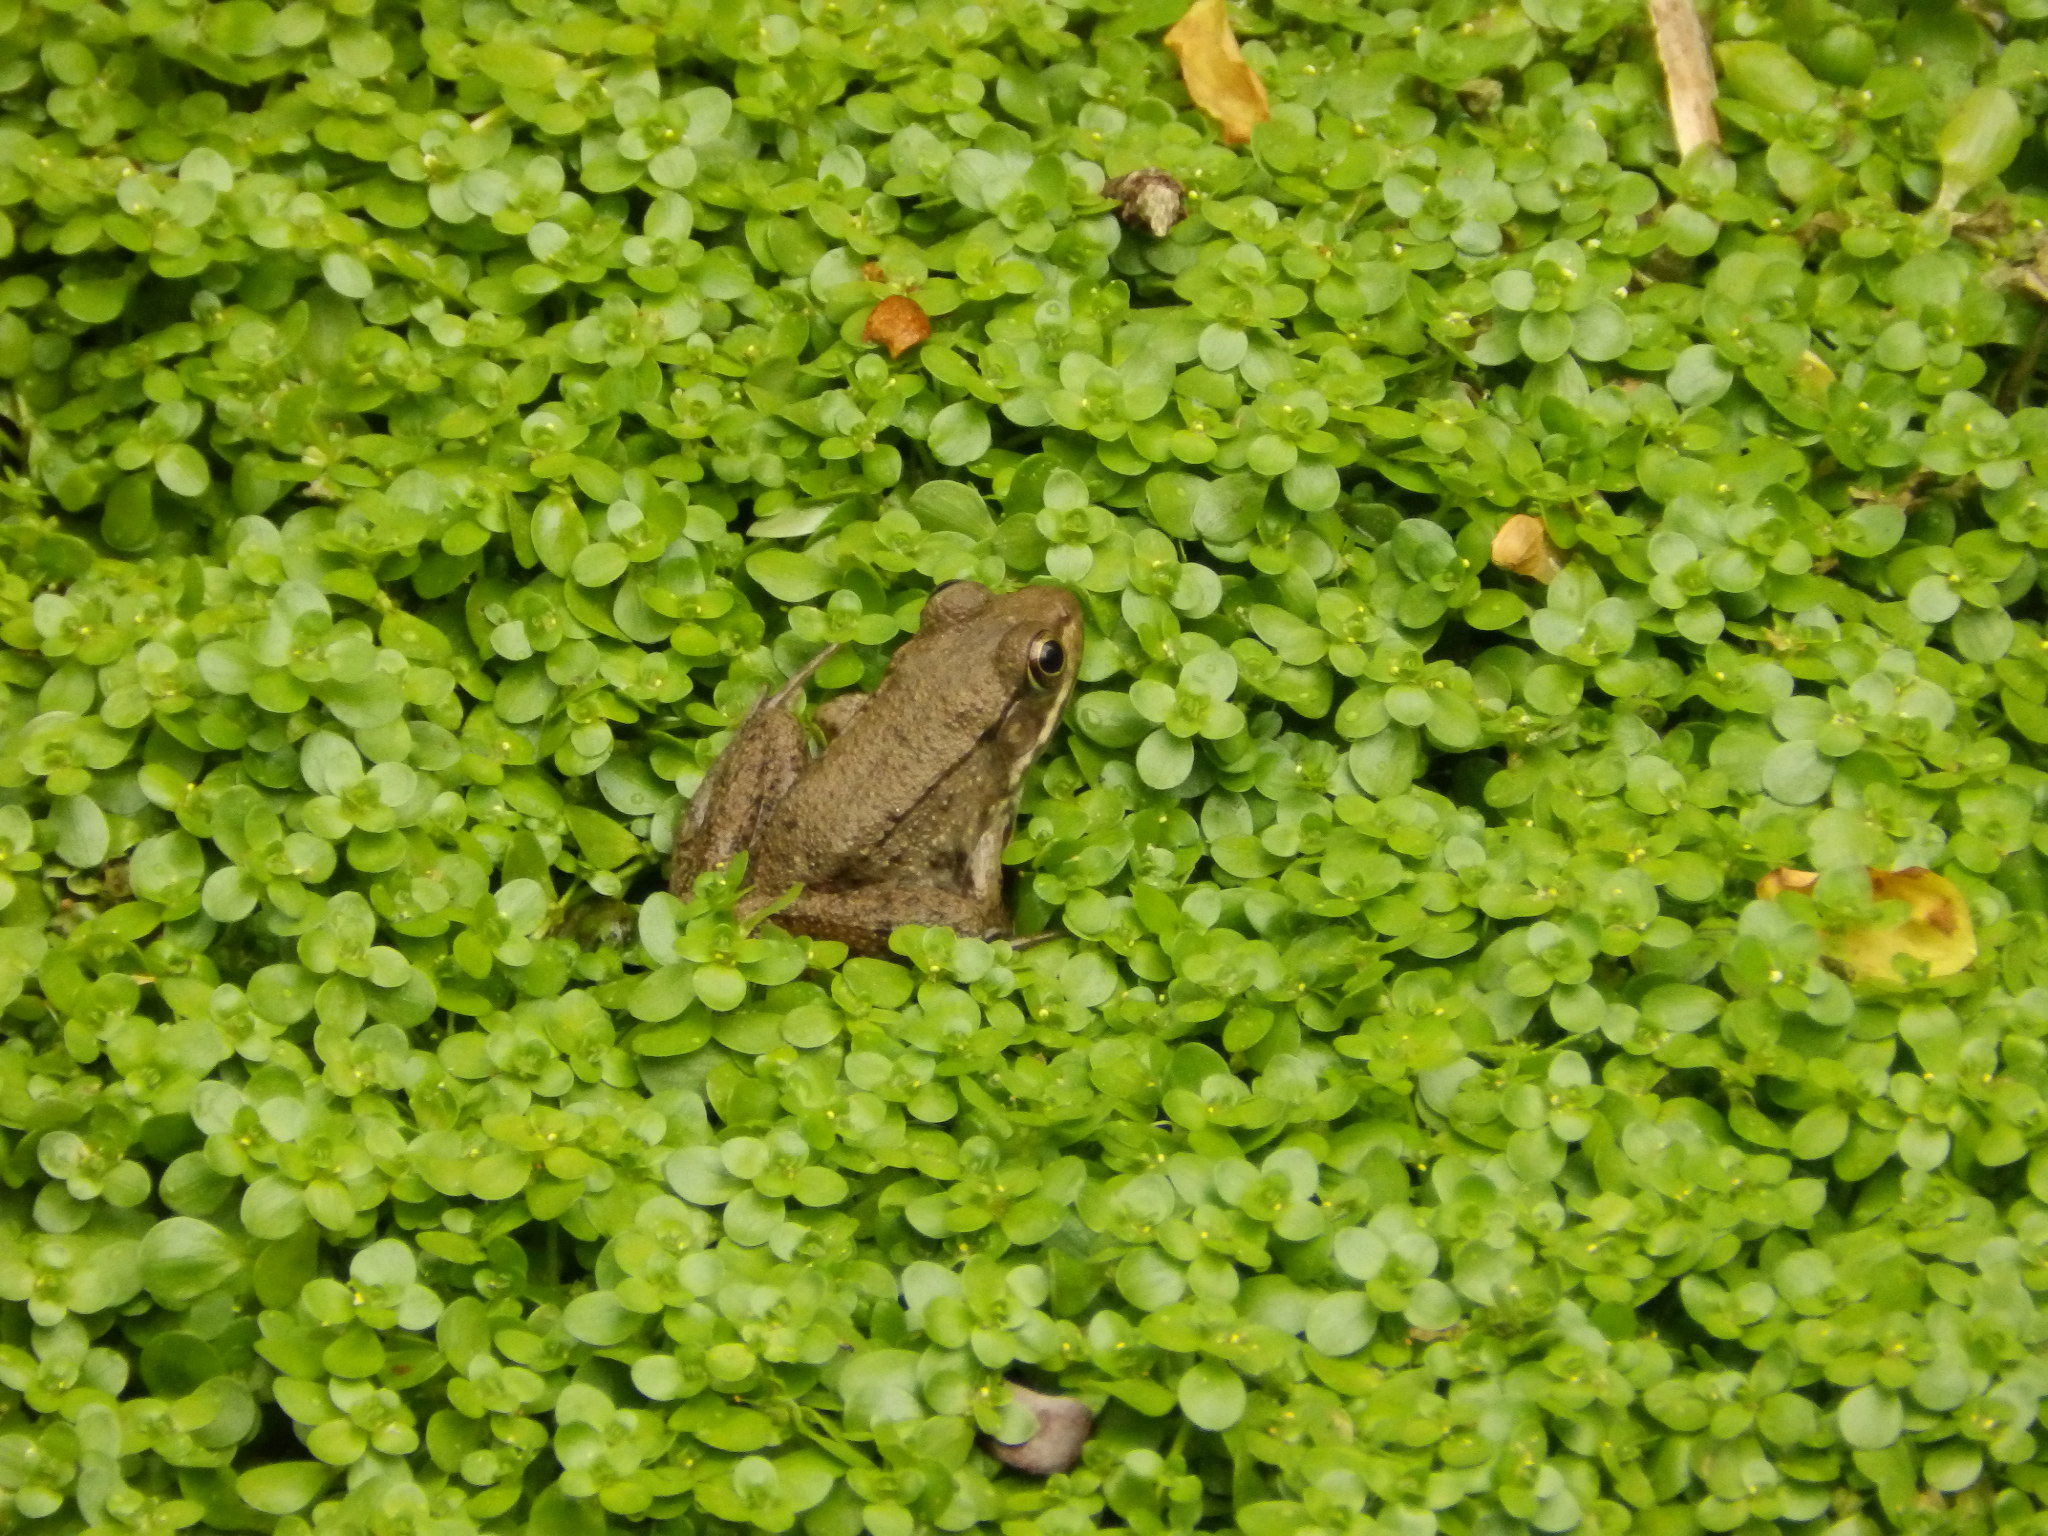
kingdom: Animalia
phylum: Chordata
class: Amphibia
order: Anura
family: Ranidae
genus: Lithobates
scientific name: Lithobates clamitans
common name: Green frog
